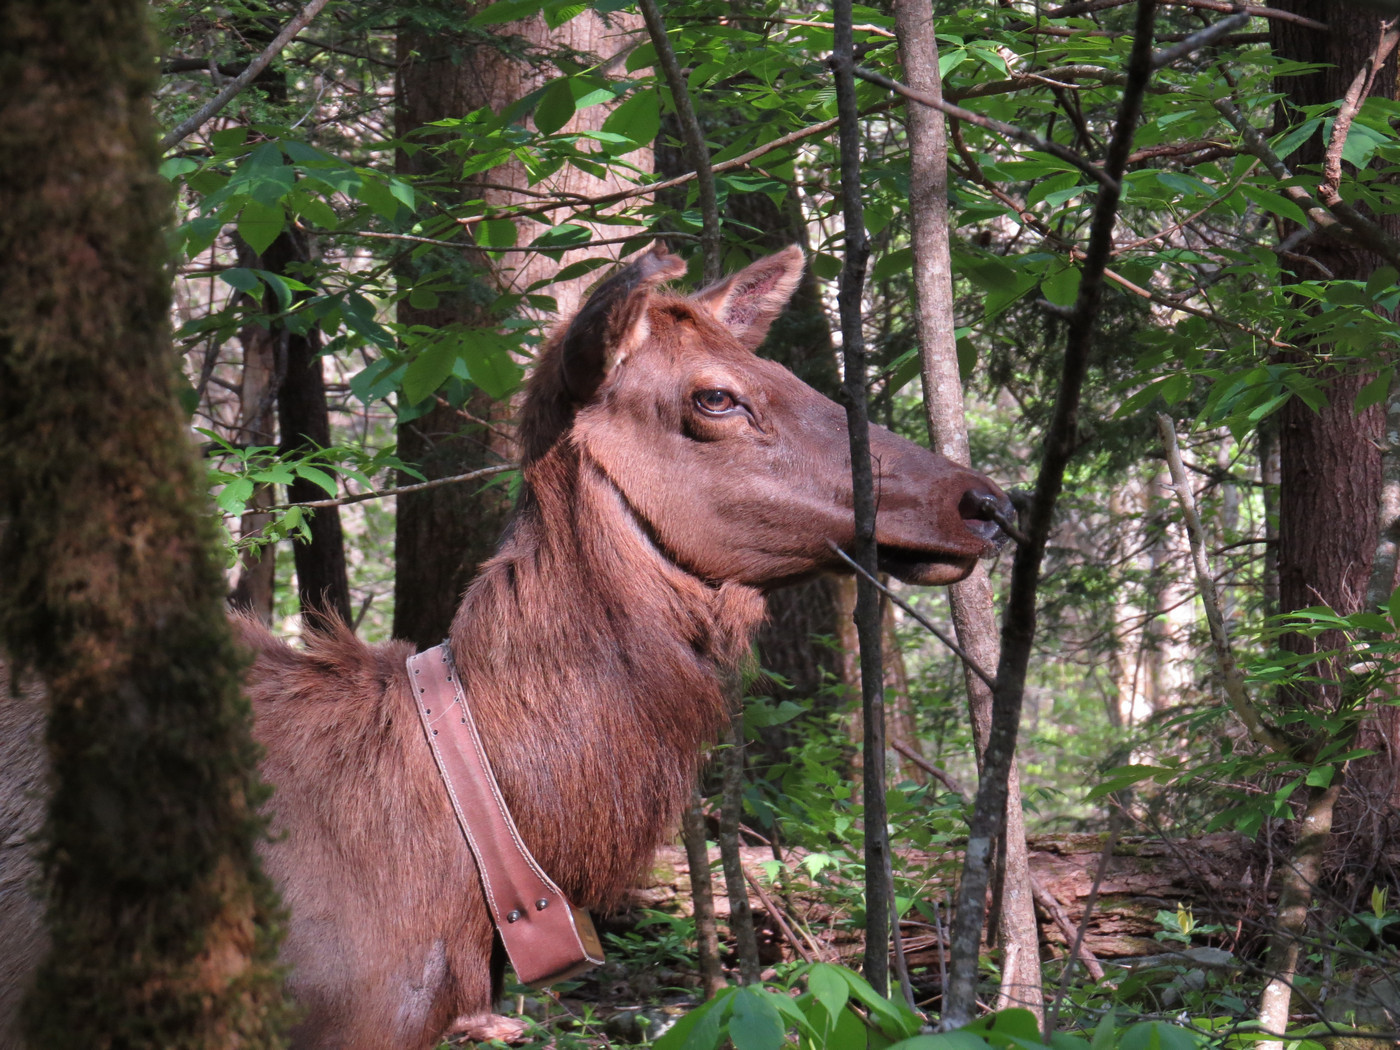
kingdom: Animalia
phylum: Chordata
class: Mammalia
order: Artiodactyla
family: Cervidae
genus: Cervus
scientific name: Cervus elaphus
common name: Red deer
